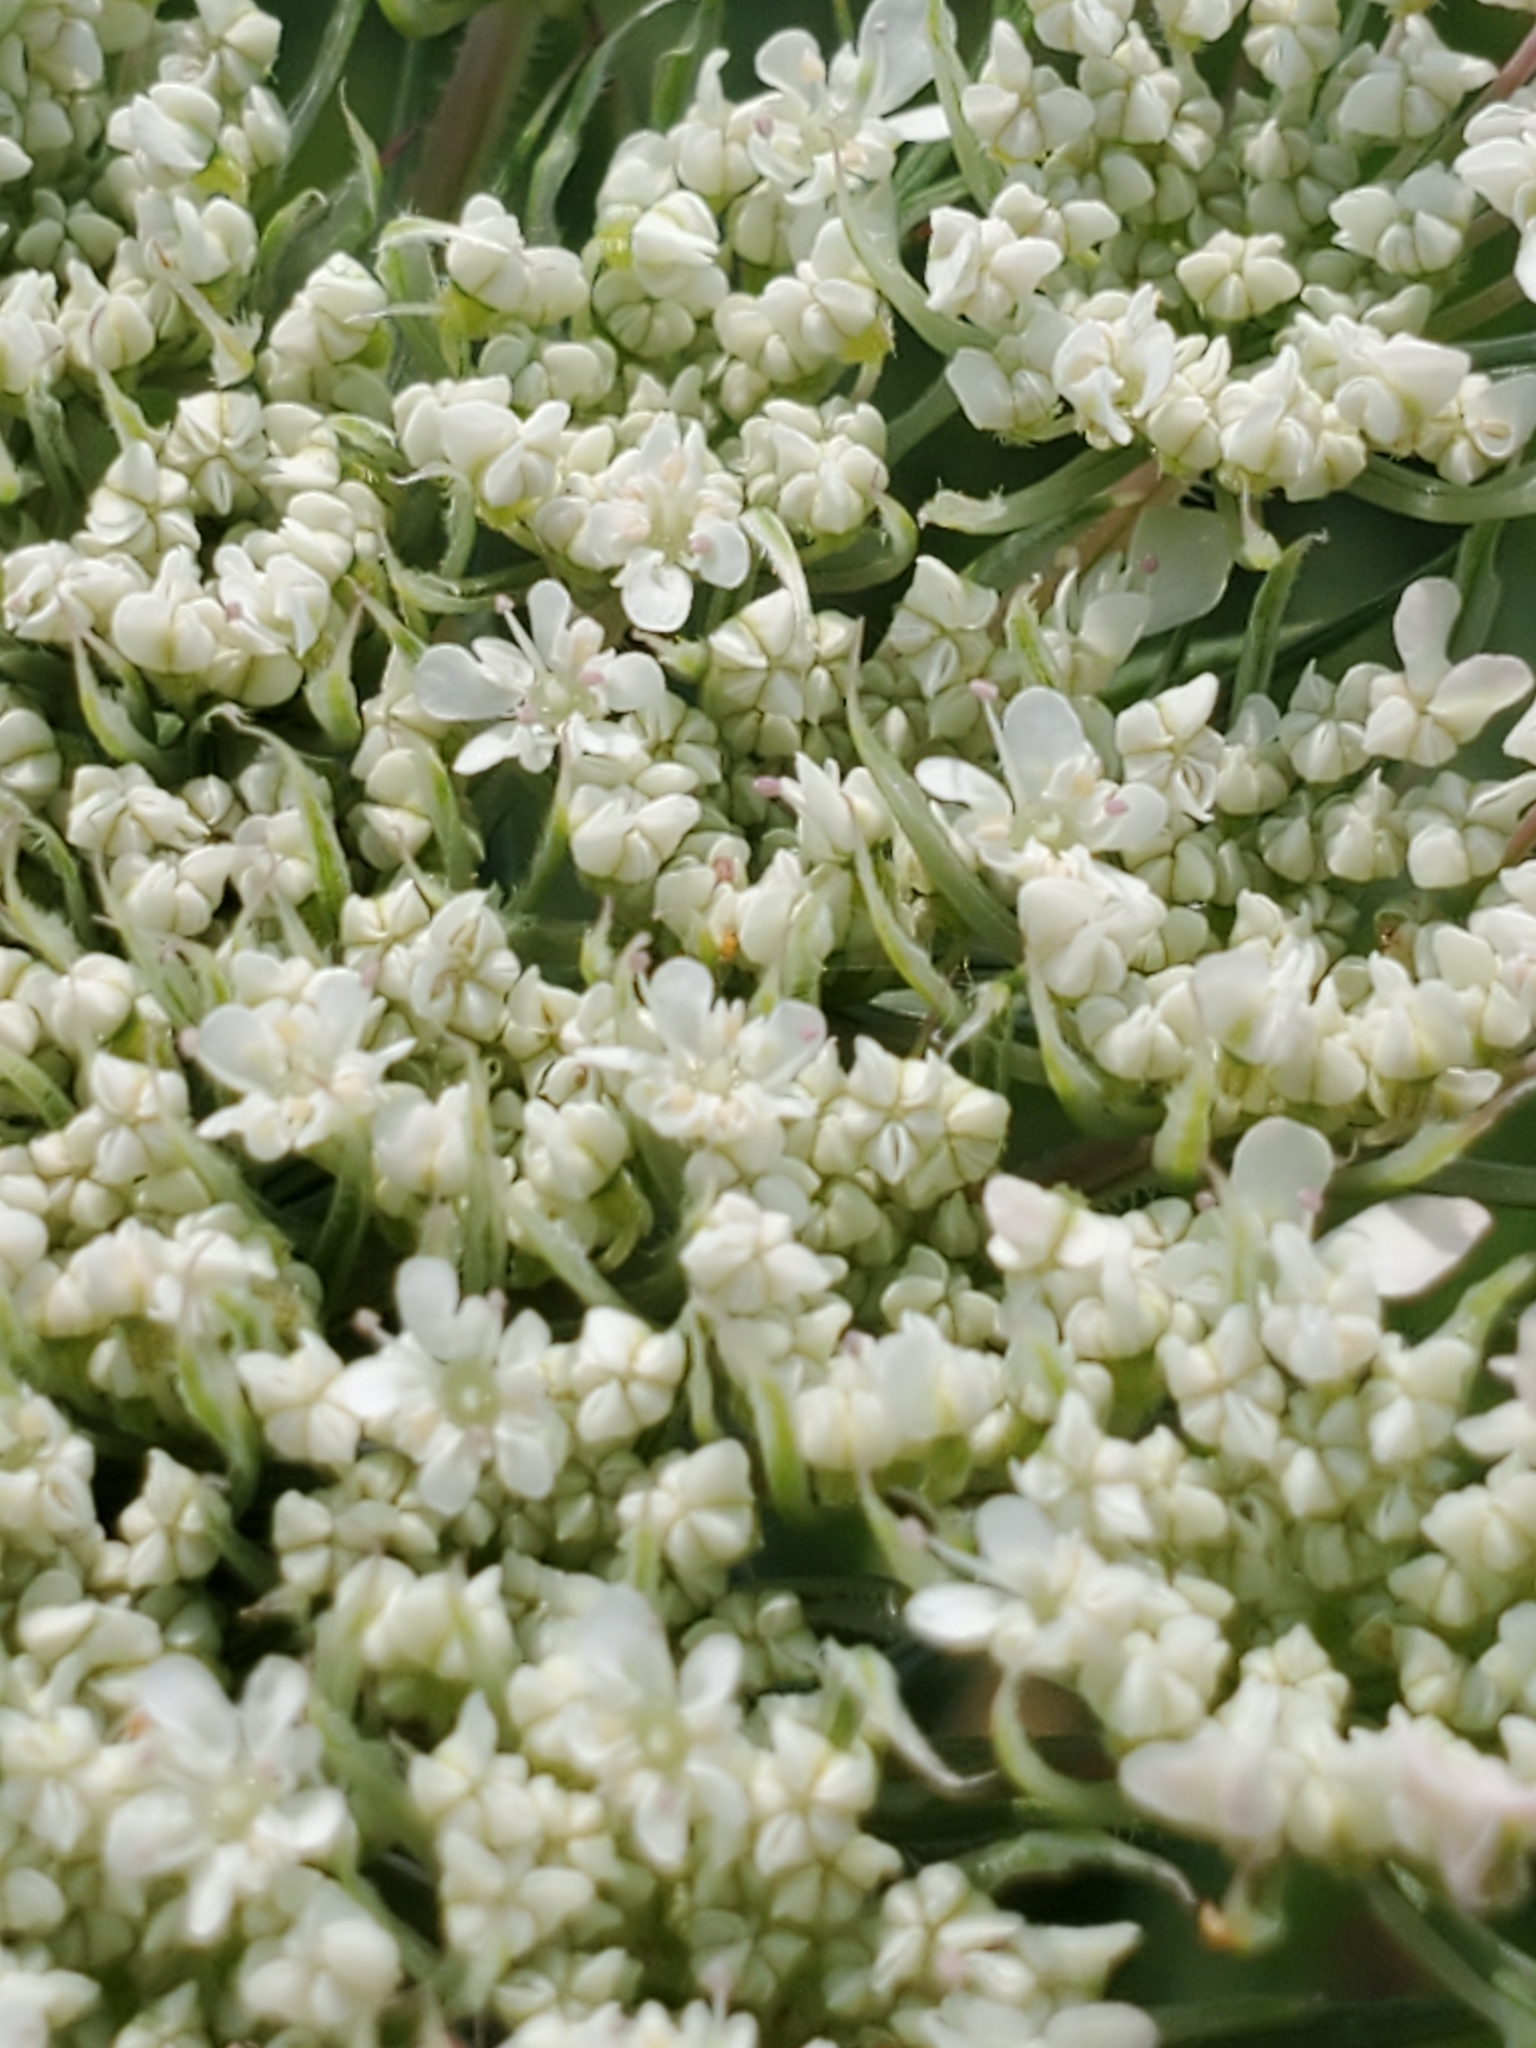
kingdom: Plantae
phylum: Tracheophyta
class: Magnoliopsida
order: Apiales
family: Apiaceae
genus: Daucus
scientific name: Daucus carota
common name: Wild carrot
